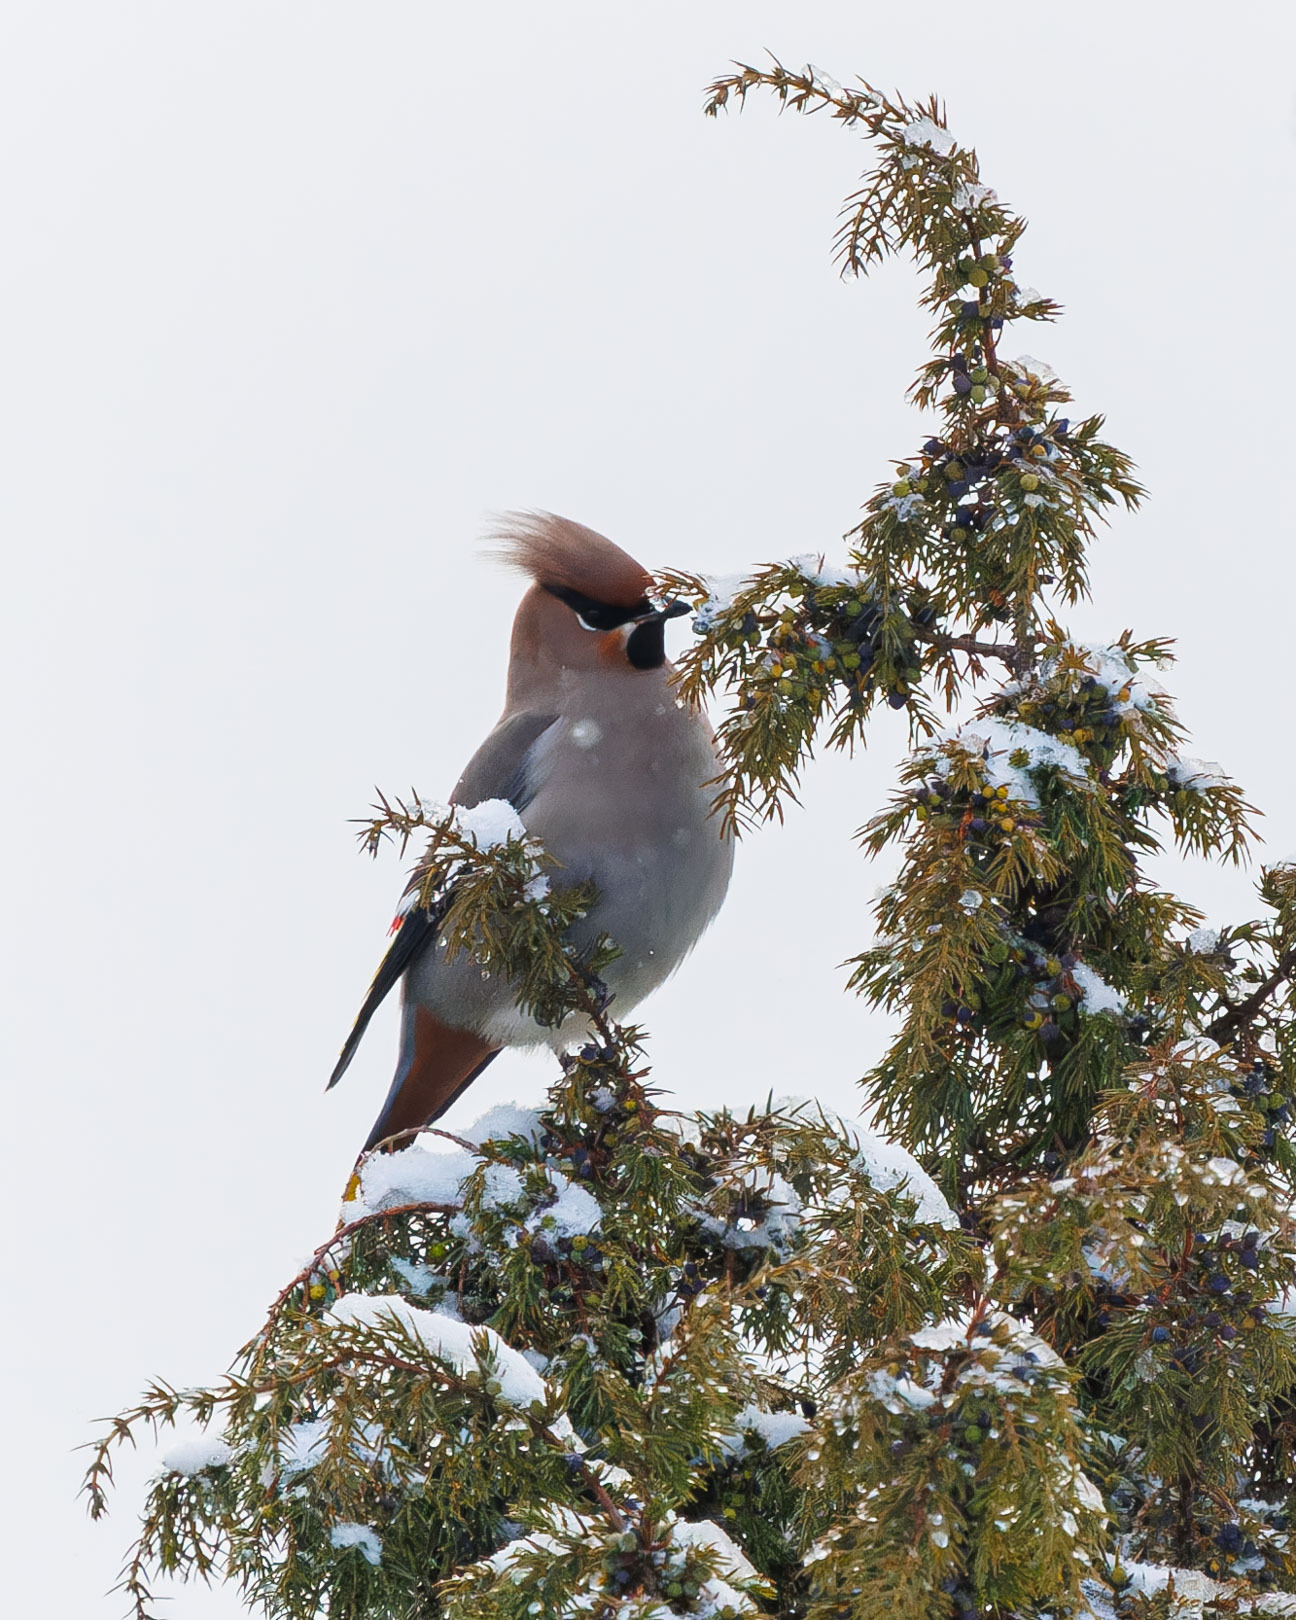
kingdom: Animalia
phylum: Chordata
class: Aves
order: Passeriformes
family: Bombycillidae
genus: Bombycilla
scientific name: Bombycilla garrulus
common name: Bohemian waxwing
